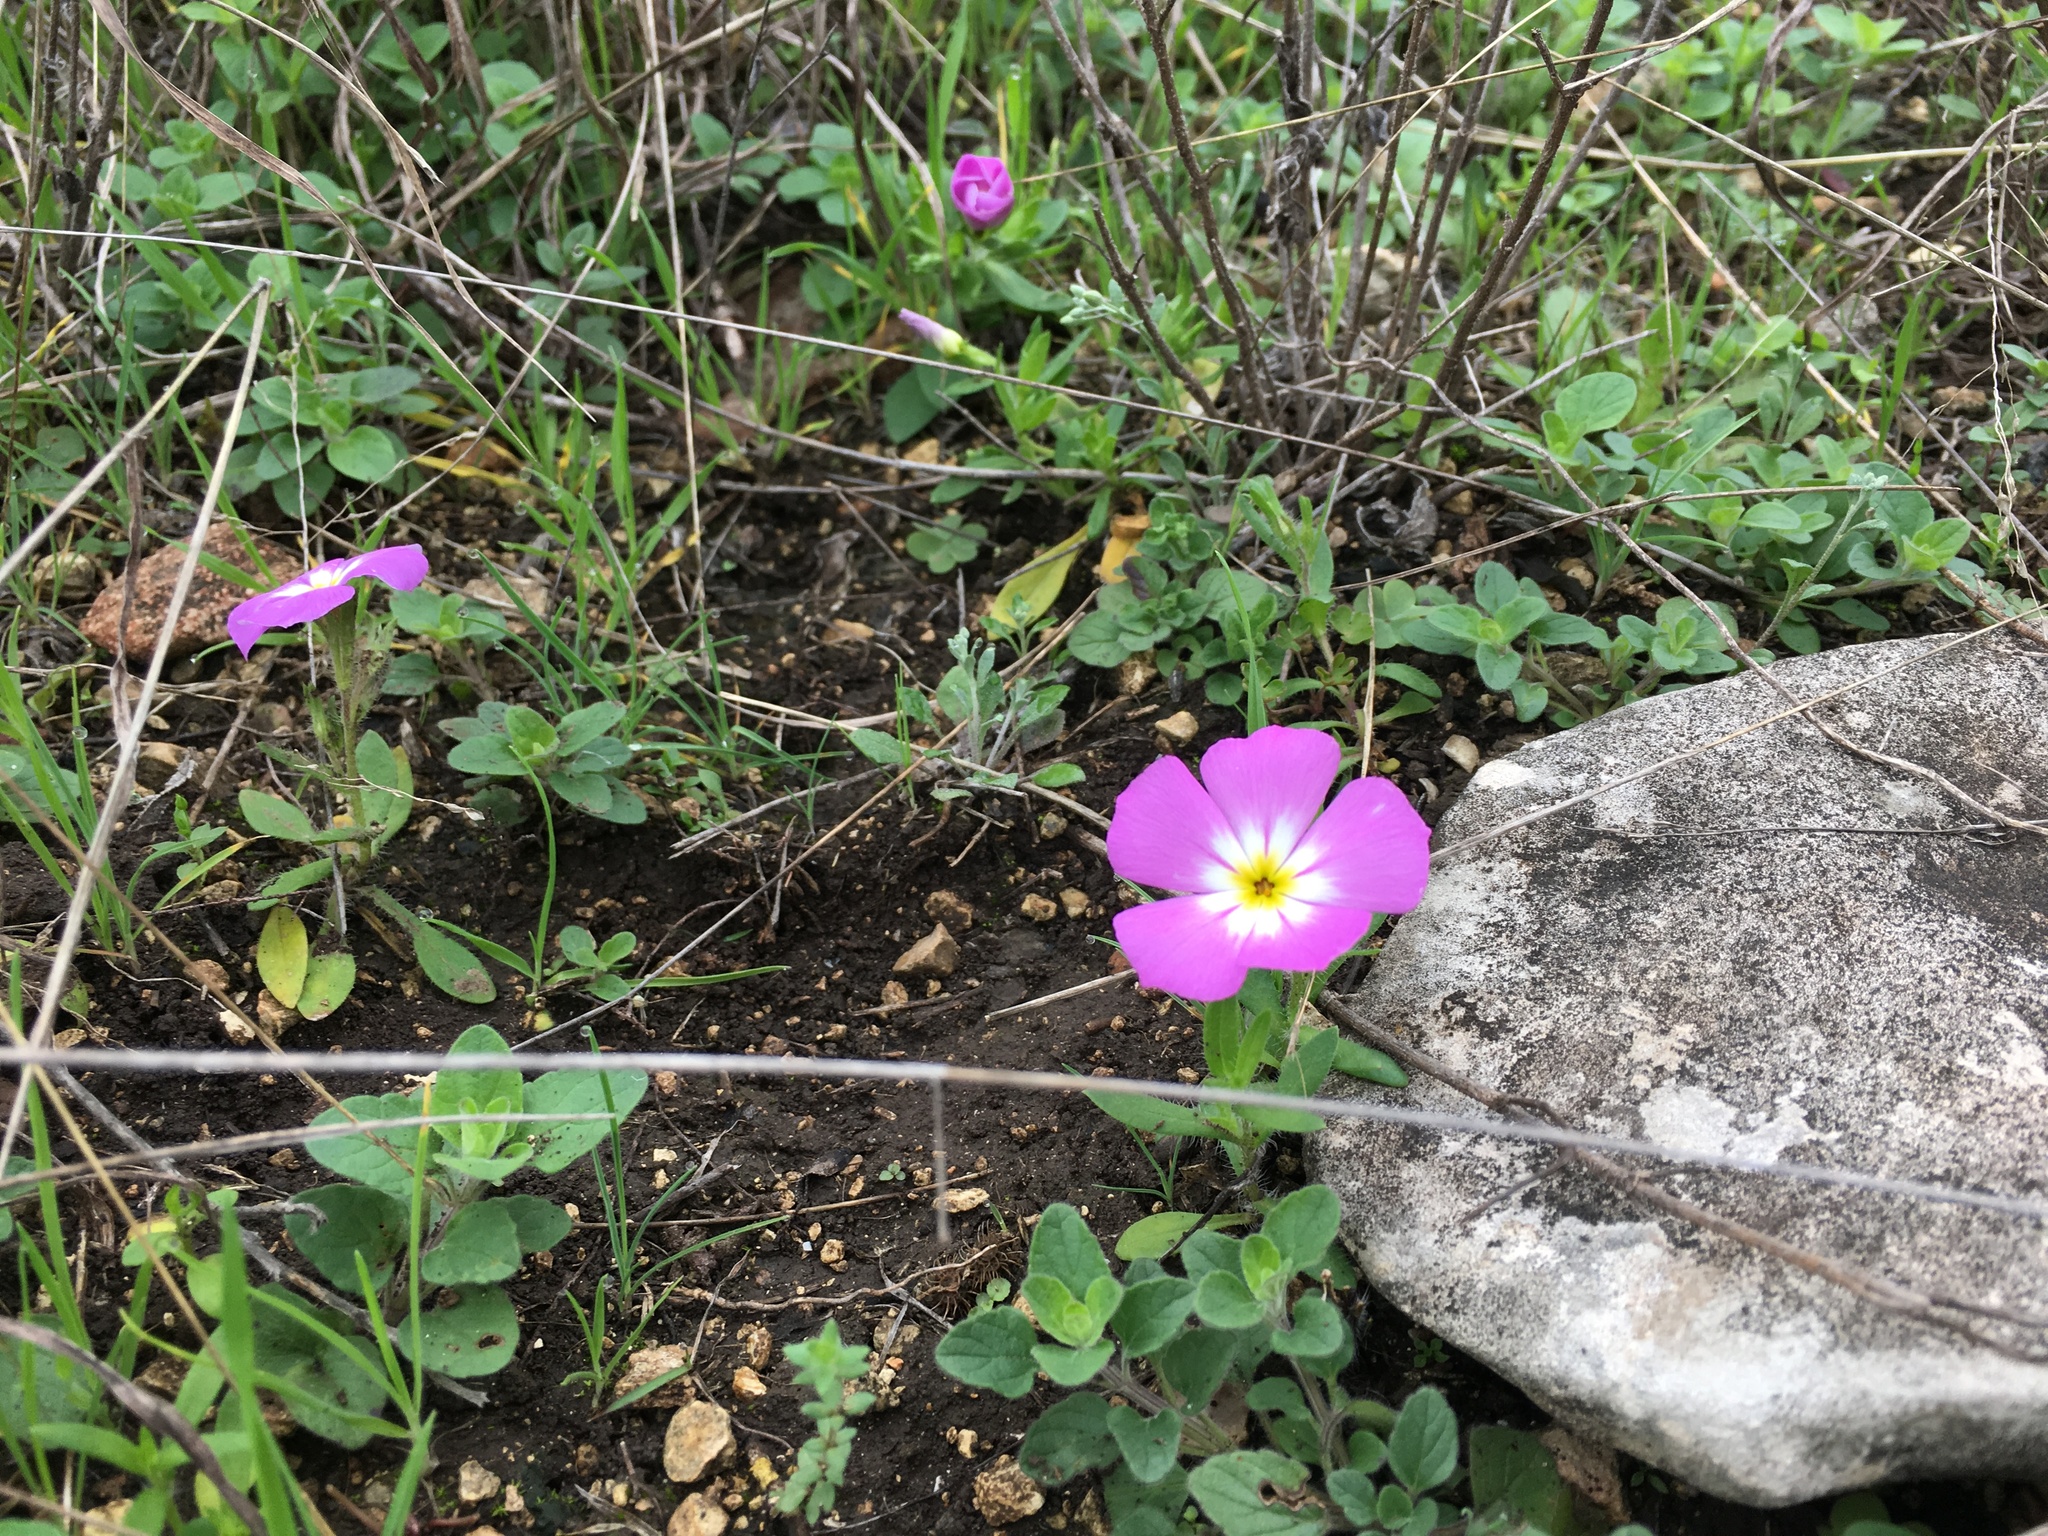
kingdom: Plantae
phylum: Tracheophyta
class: Magnoliopsida
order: Ericales
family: Polemoniaceae
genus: Phlox
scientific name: Phlox roemeriana
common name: Roemer's phlox
